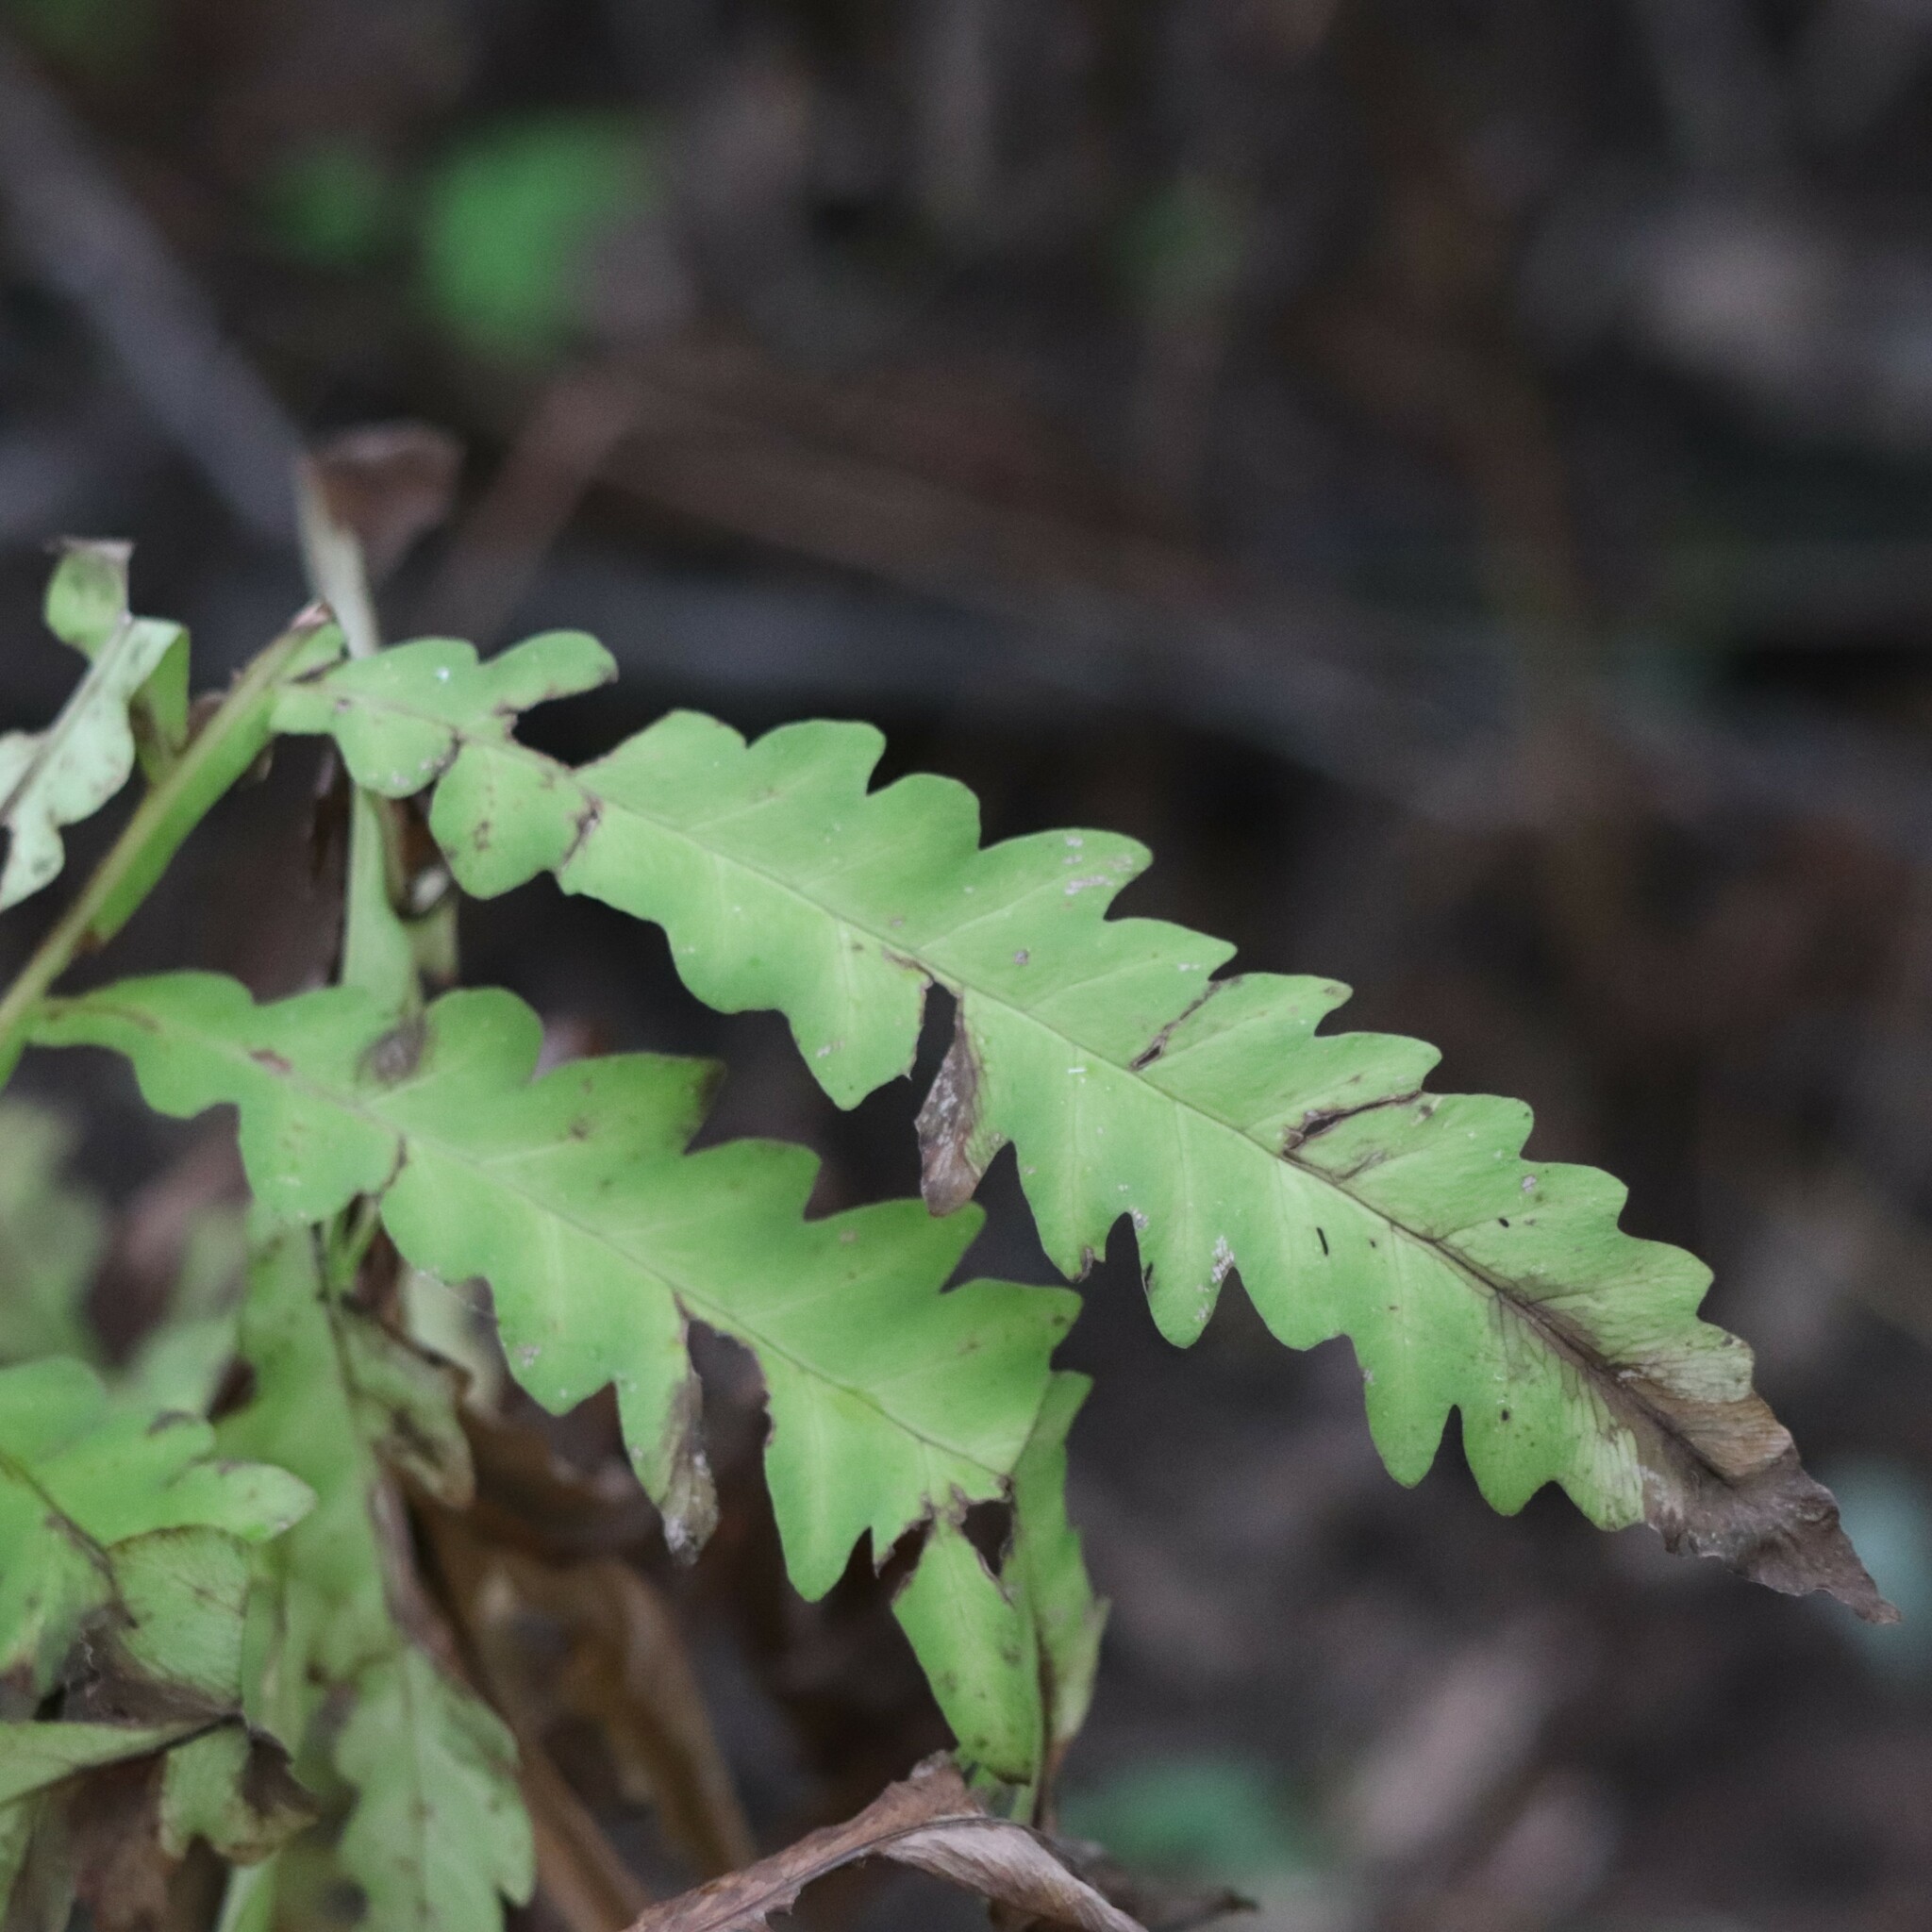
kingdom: Plantae
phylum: Tracheophyta
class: Polypodiopsida
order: Polypodiales
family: Onocleaceae
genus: Onoclea
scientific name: Onoclea sensibilis
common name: Sensitive fern
